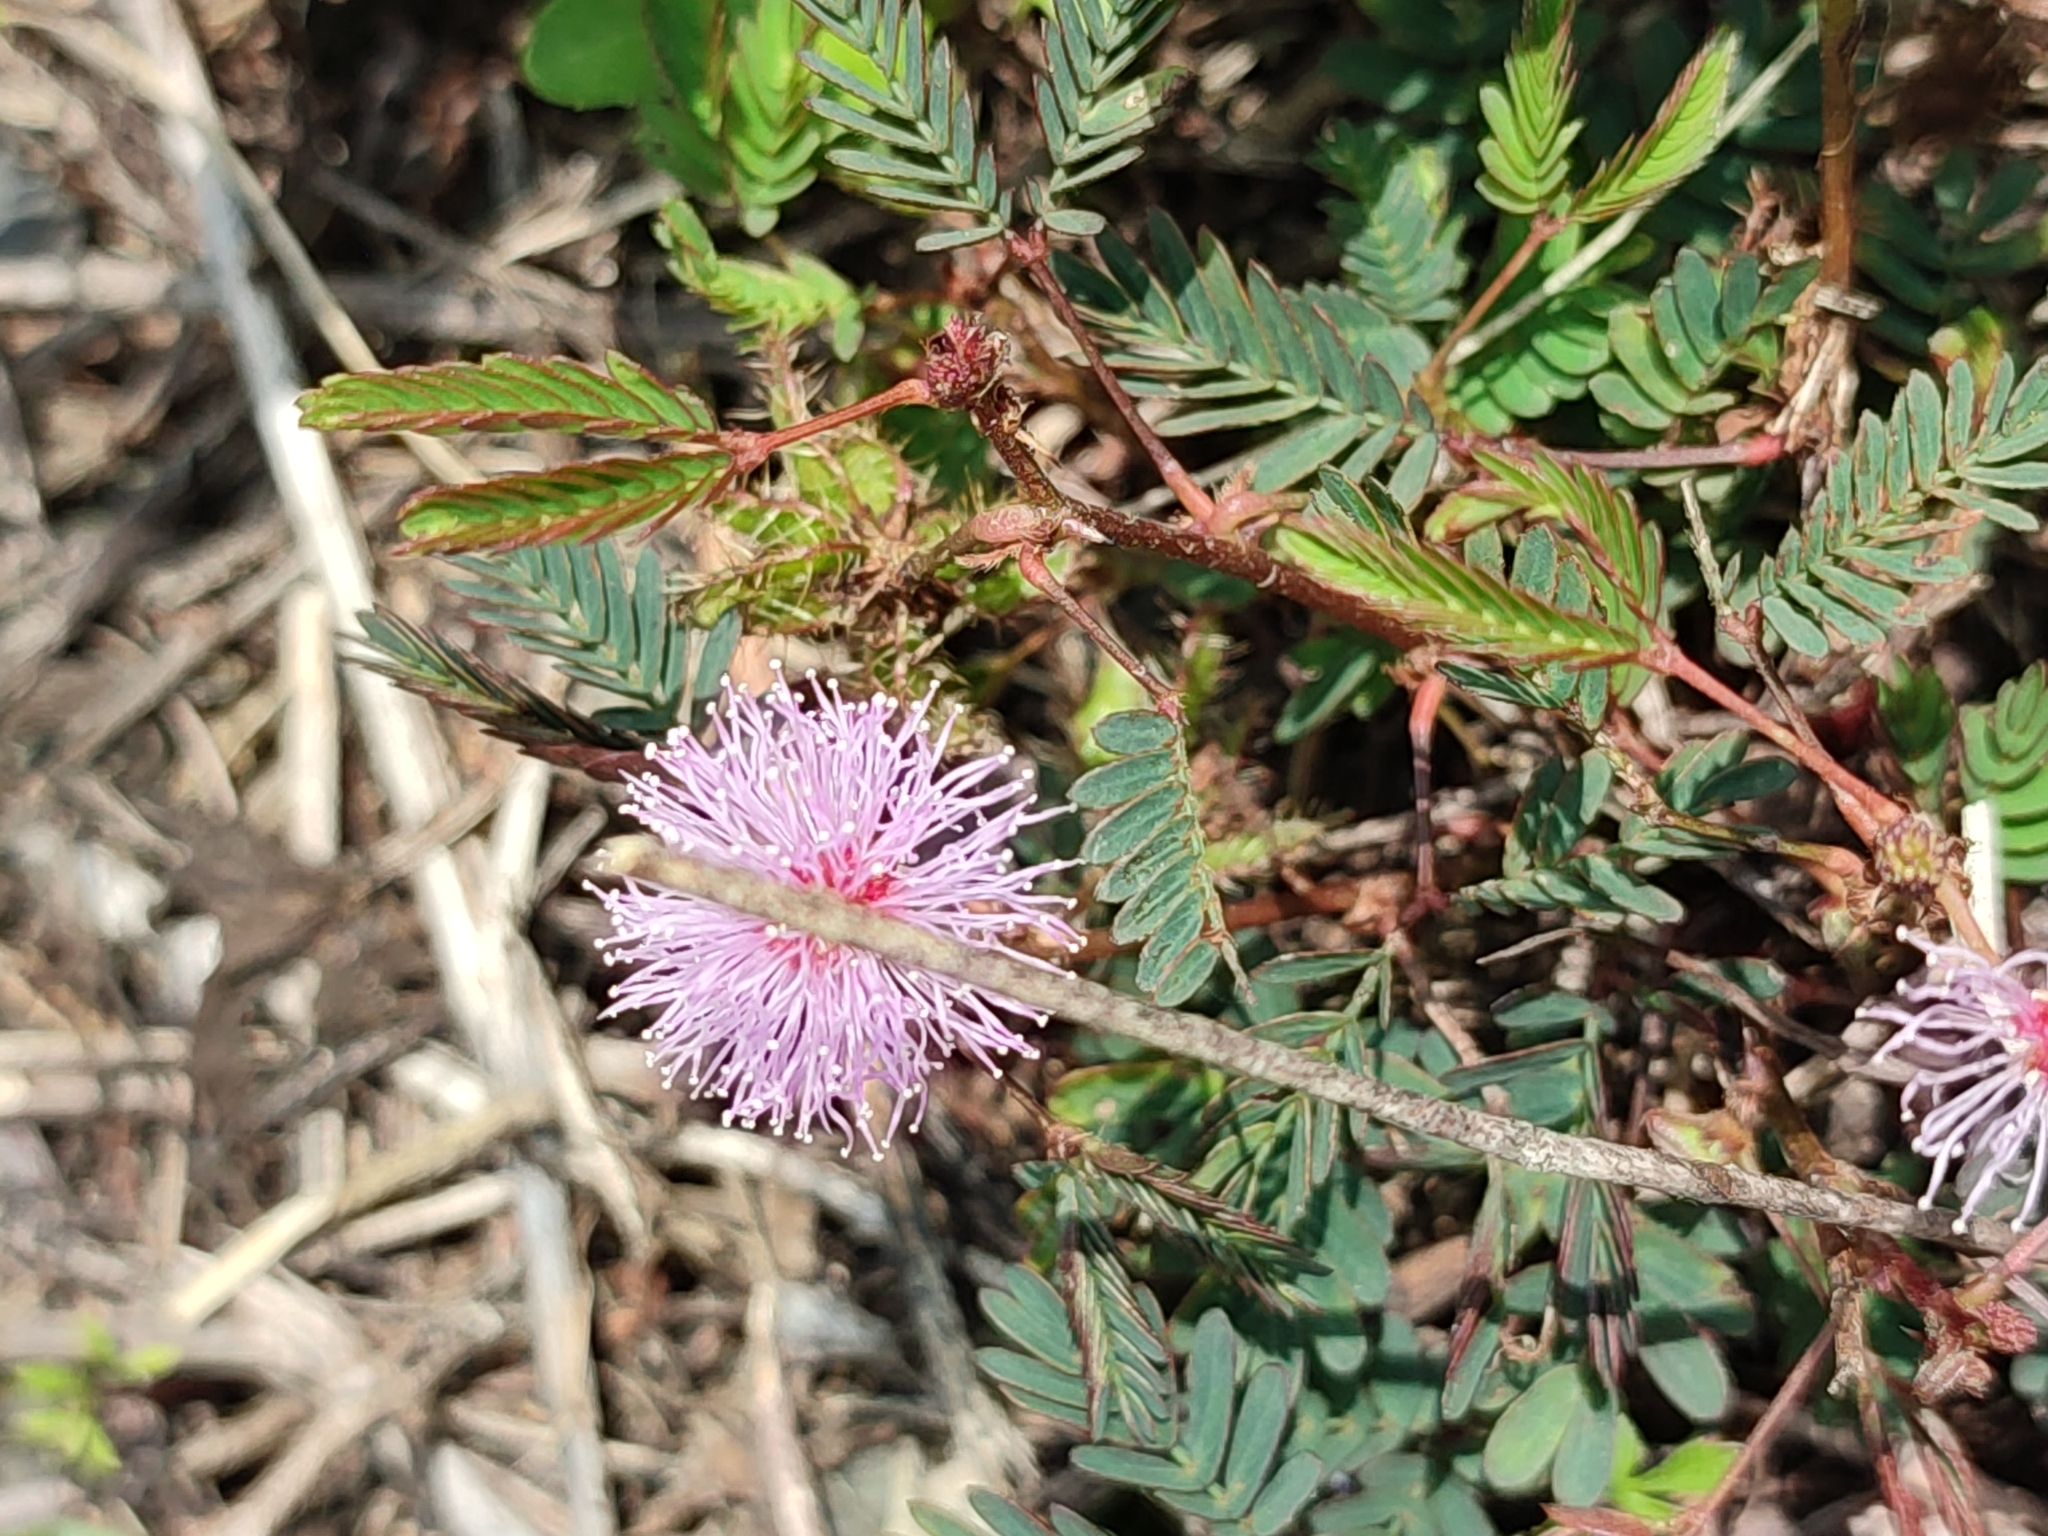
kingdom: Plantae
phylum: Tracheophyta
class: Magnoliopsida
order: Fabales
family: Fabaceae
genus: Mimosa
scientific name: Mimosa pudica
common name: Sensitive plant
